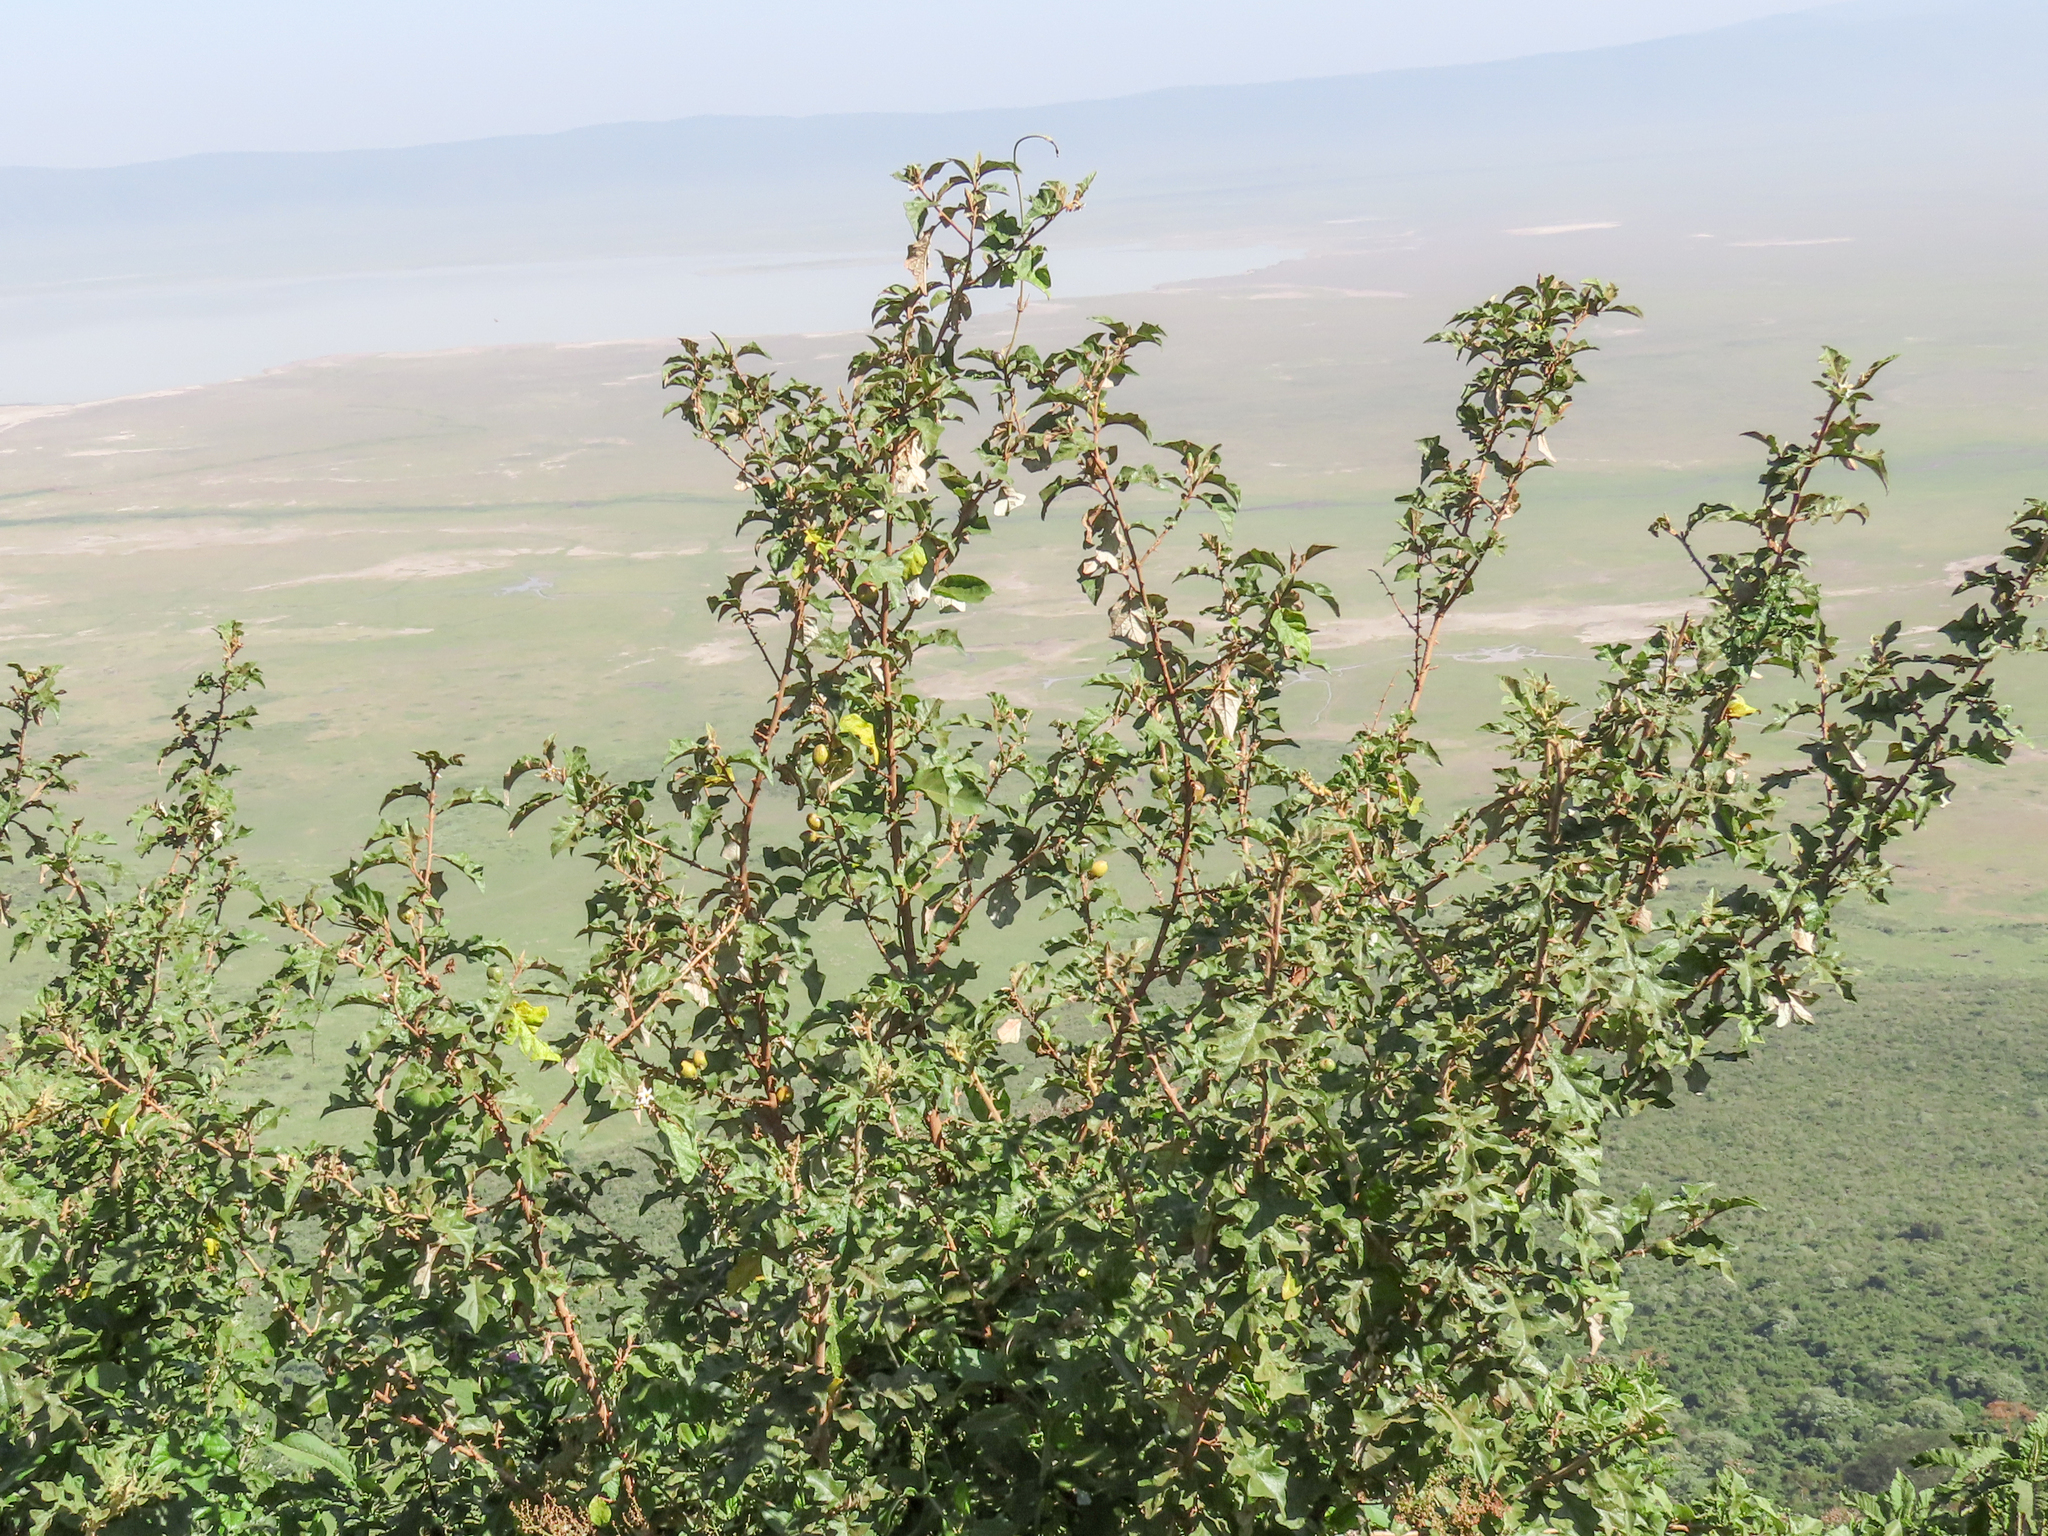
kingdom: Plantae
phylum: Tracheophyta
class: Magnoliopsida
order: Solanales
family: Solanaceae
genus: Solanum
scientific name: Solanum aculeastrum
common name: Goat bitter-apple
